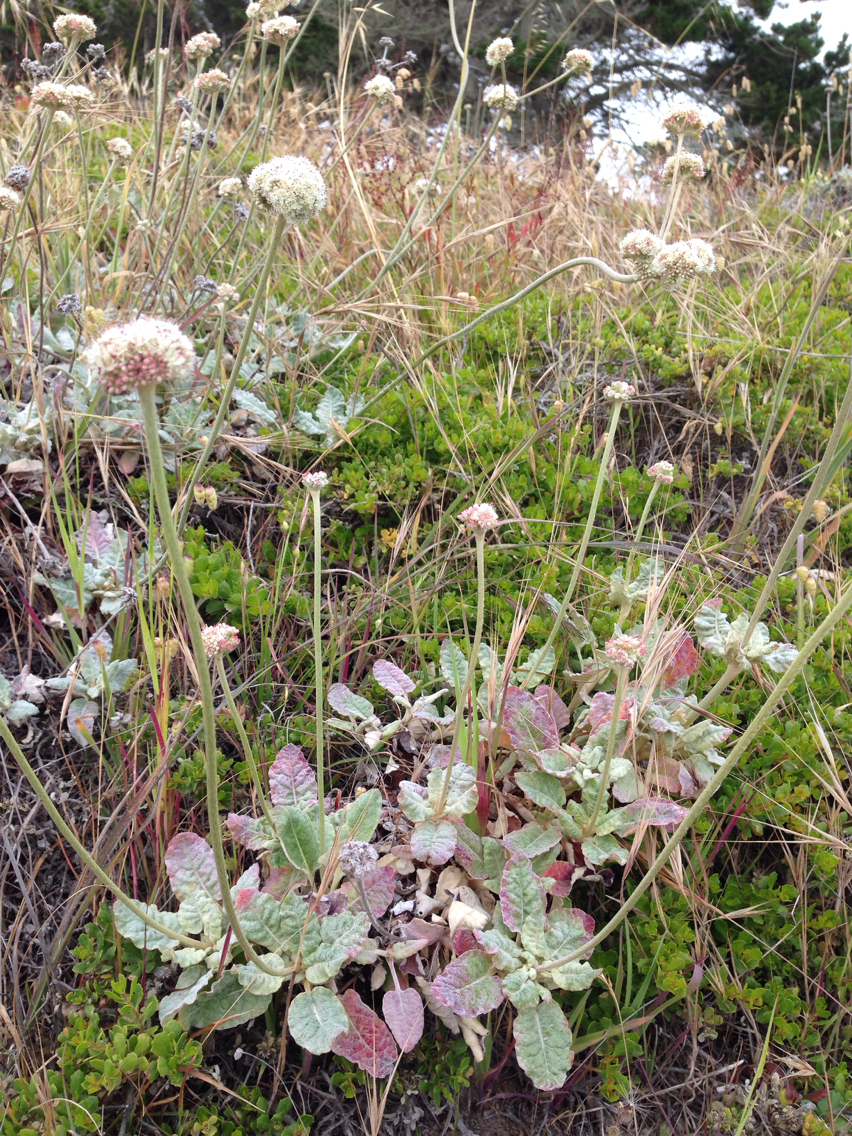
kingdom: Plantae
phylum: Tracheophyta
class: Magnoliopsida
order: Caryophyllales
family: Polygonaceae
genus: Eriogonum
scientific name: Eriogonum latifolium
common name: Seaside wild buckwheat
